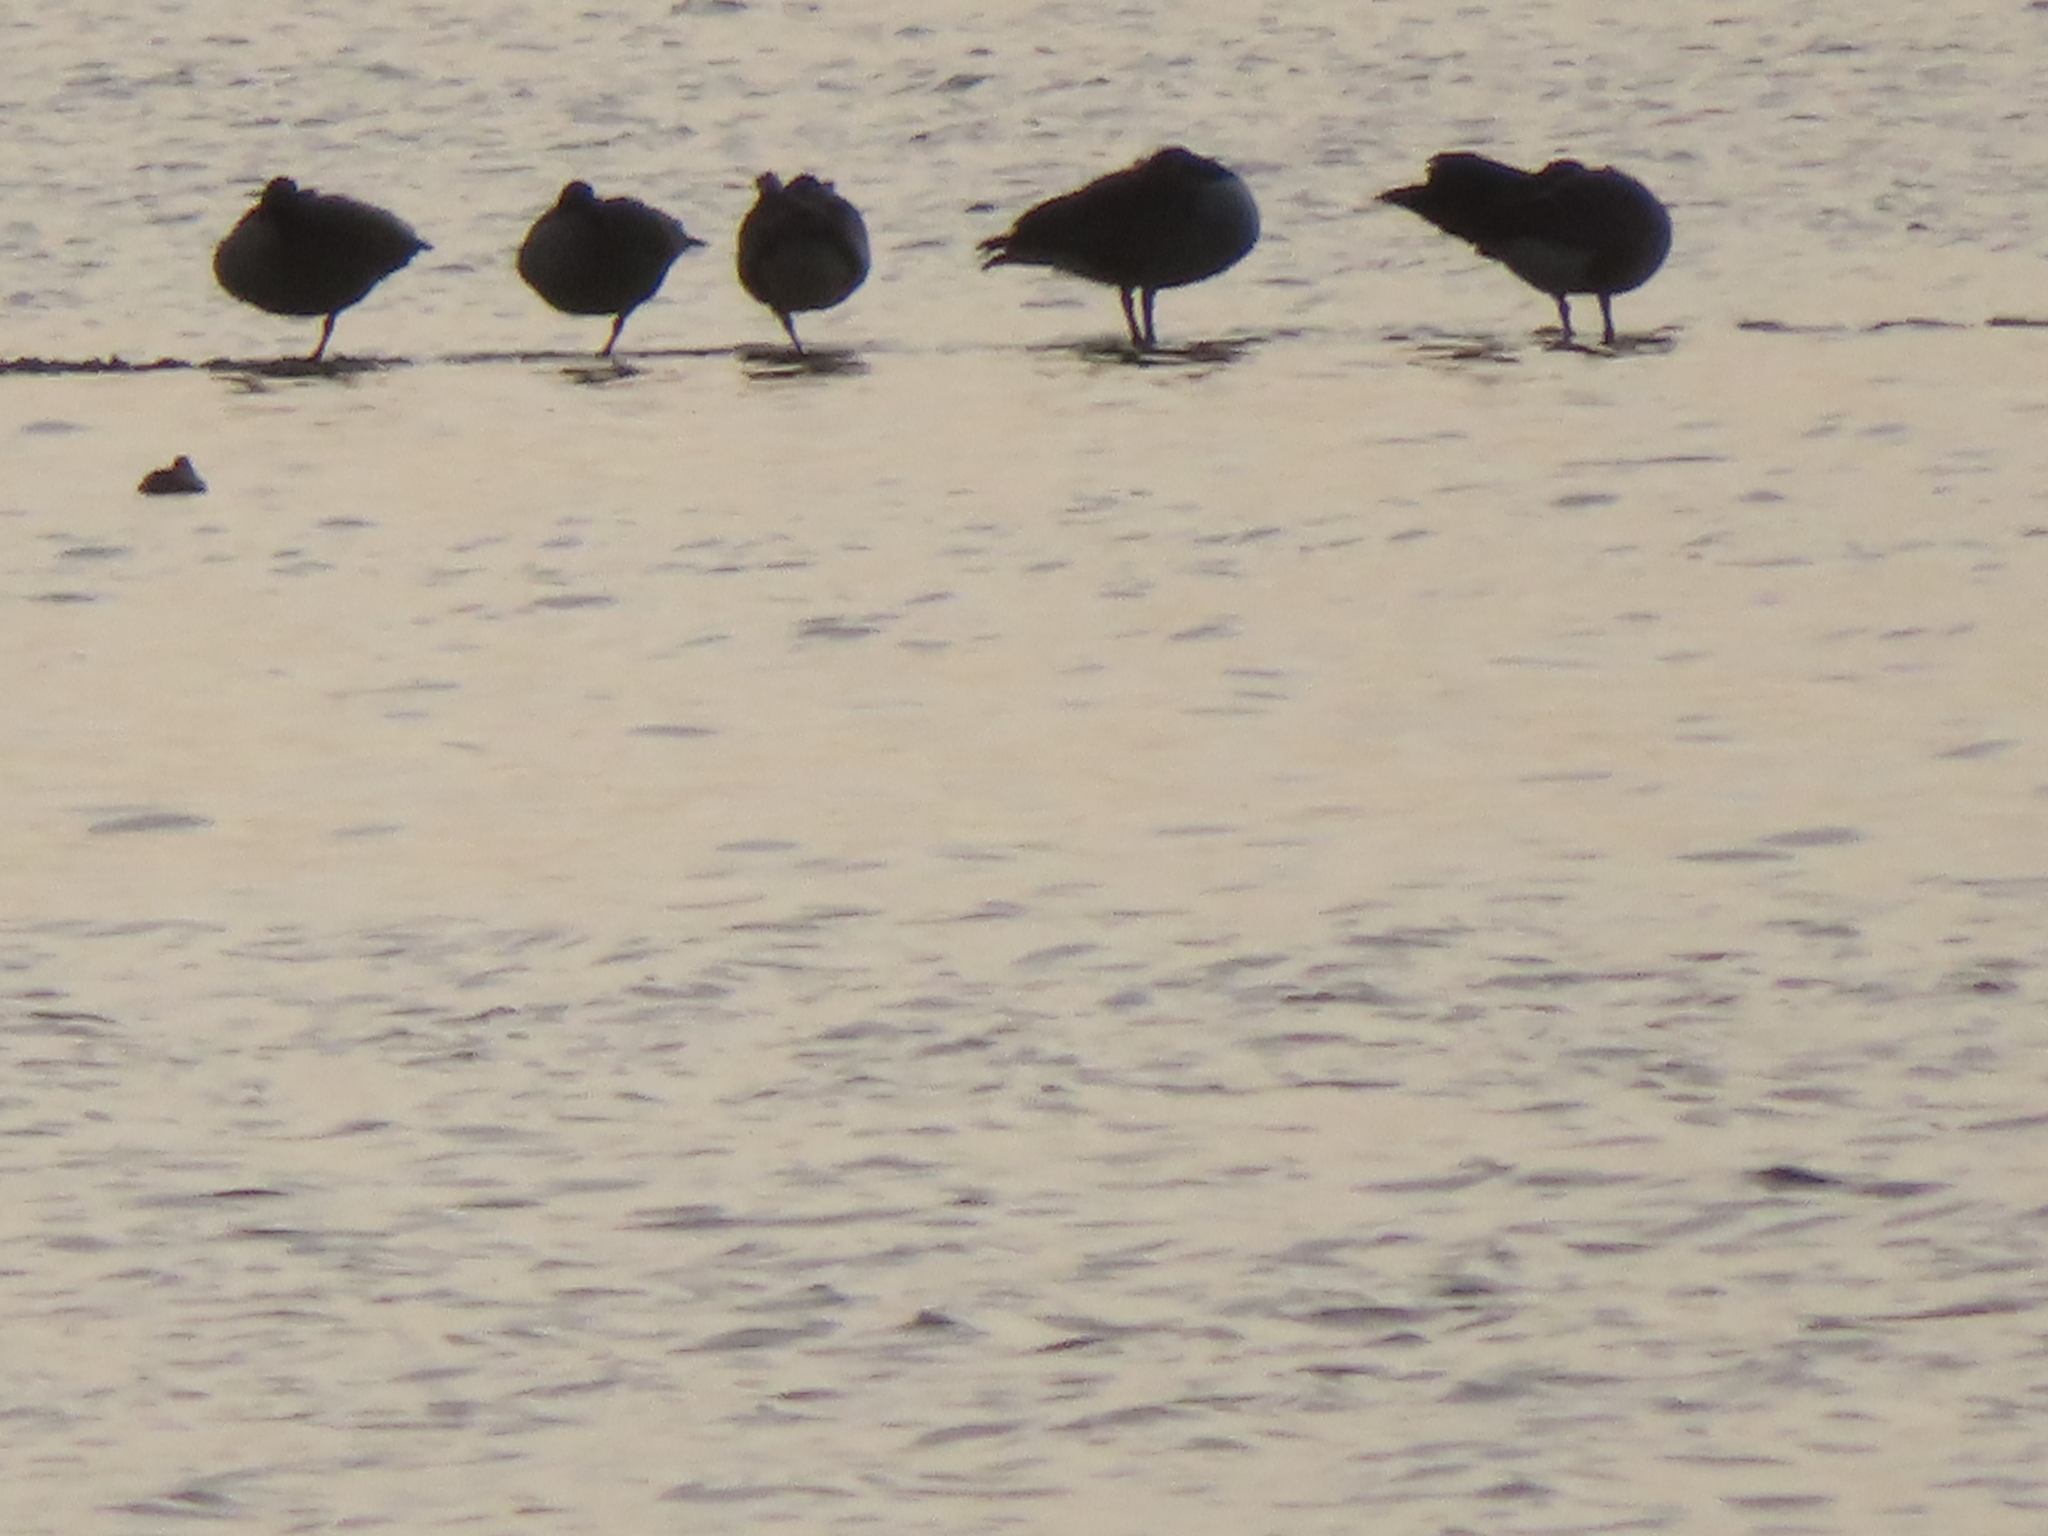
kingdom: Animalia
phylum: Chordata
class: Aves
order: Anseriformes
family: Anatidae
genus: Branta
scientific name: Branta canadensis
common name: Canada goose
